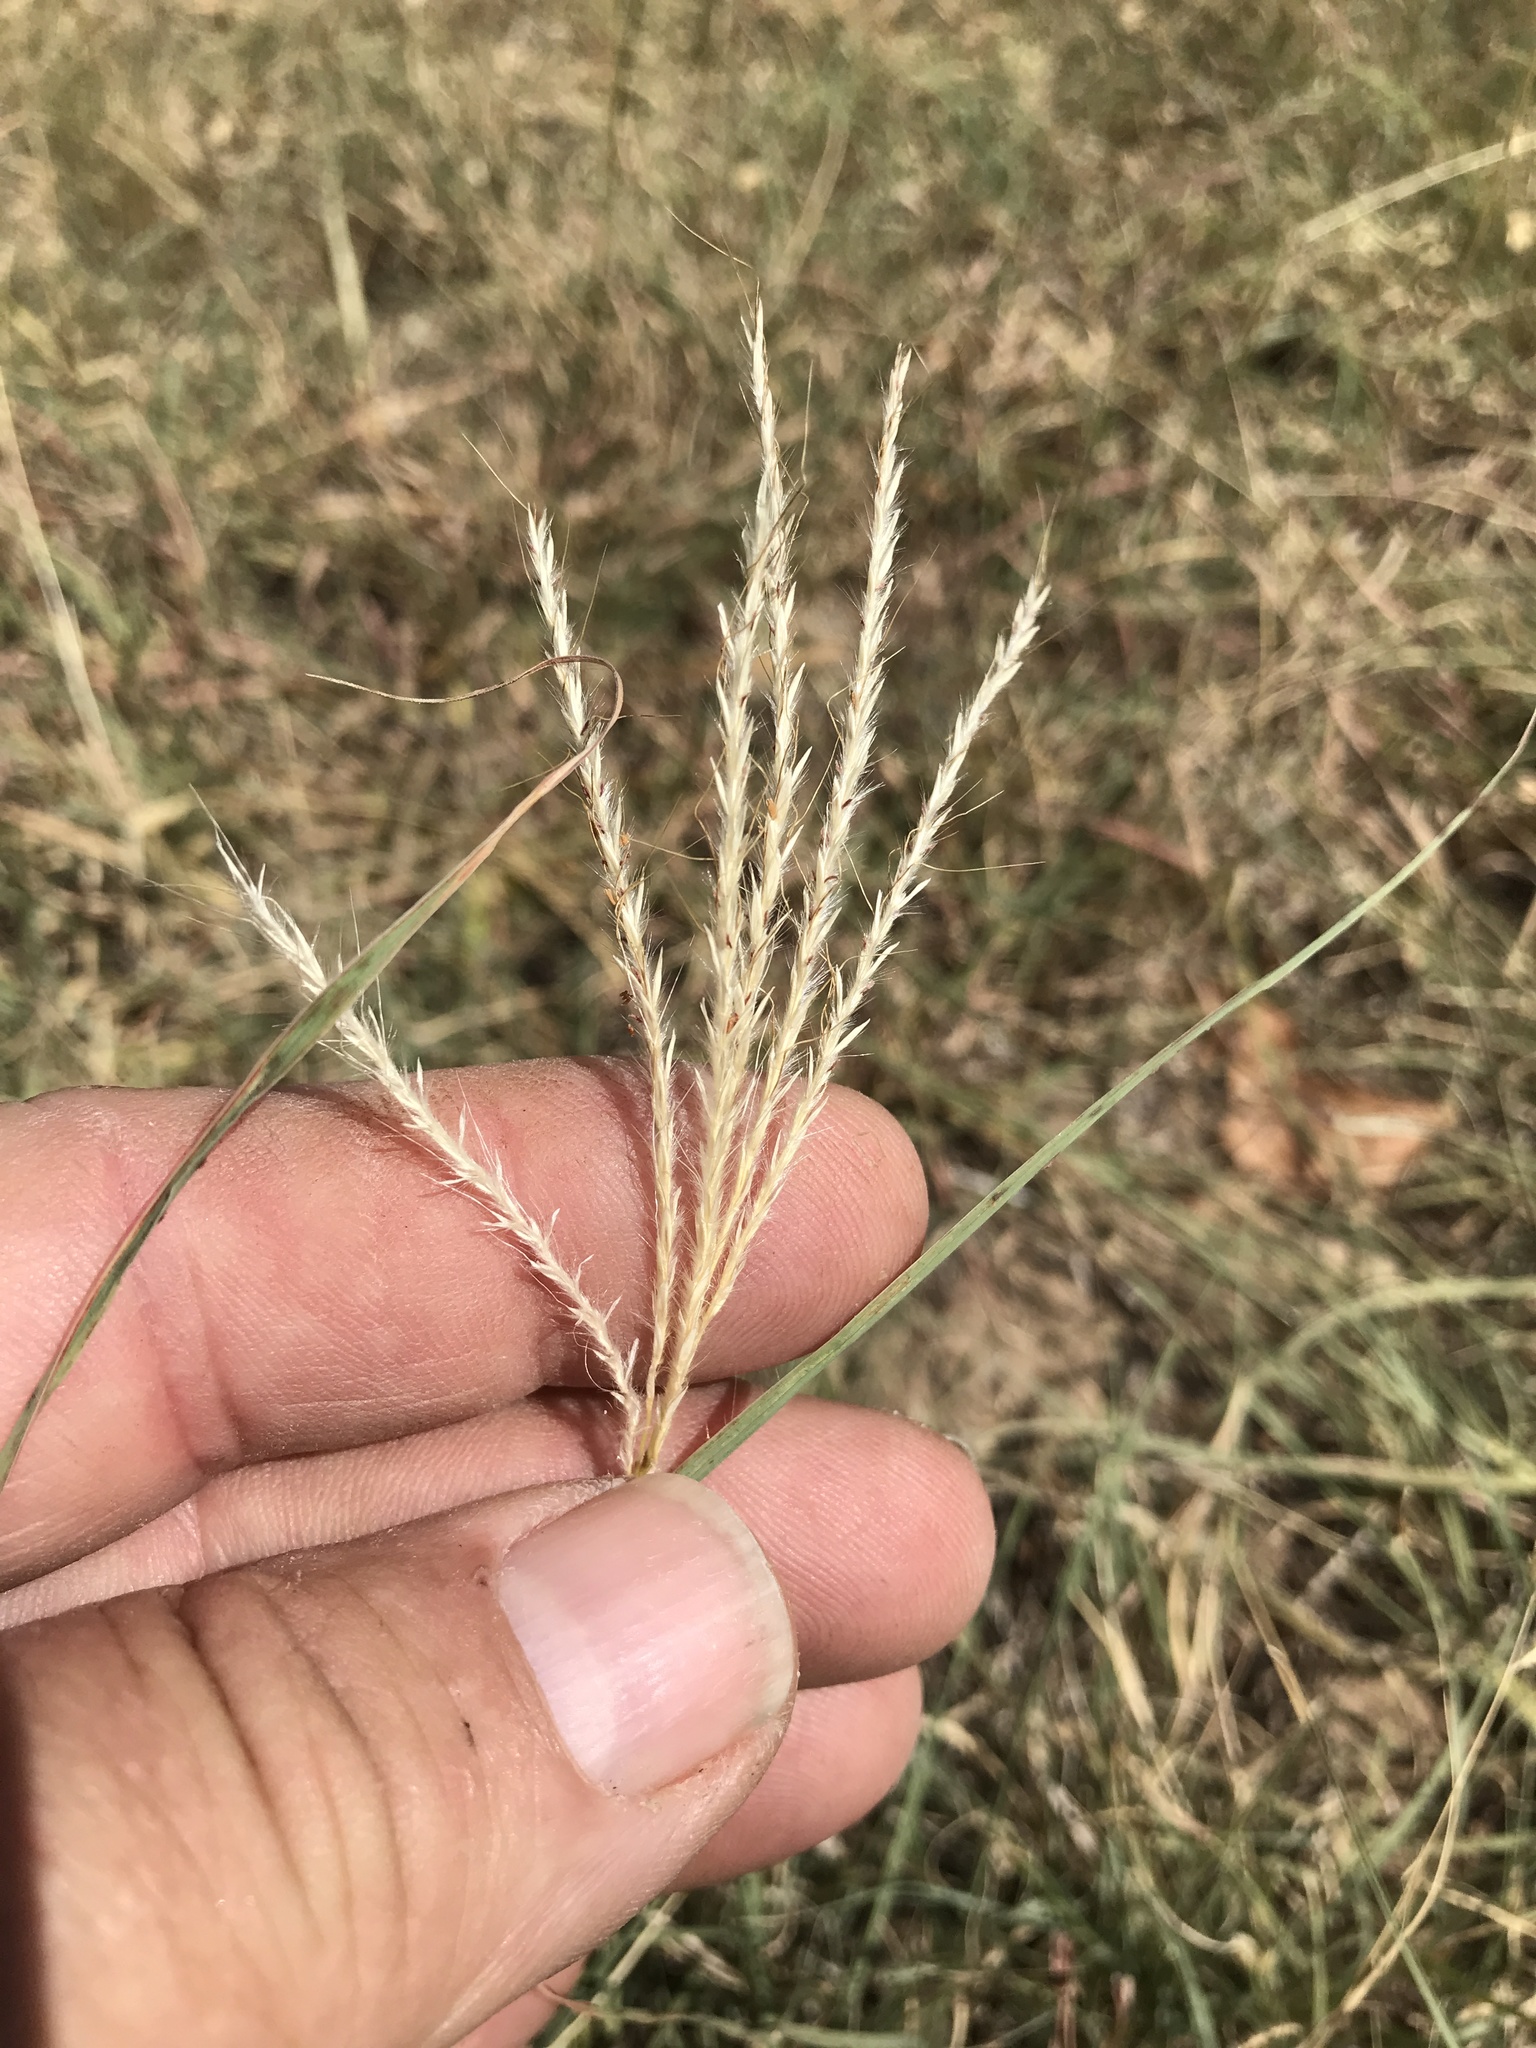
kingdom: Plantae
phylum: Tracheophyta
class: Liliopsida
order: Poales
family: Poaceae
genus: Bothriochloa
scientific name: Bothriochloa ischaemum
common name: Yellow bluestem
